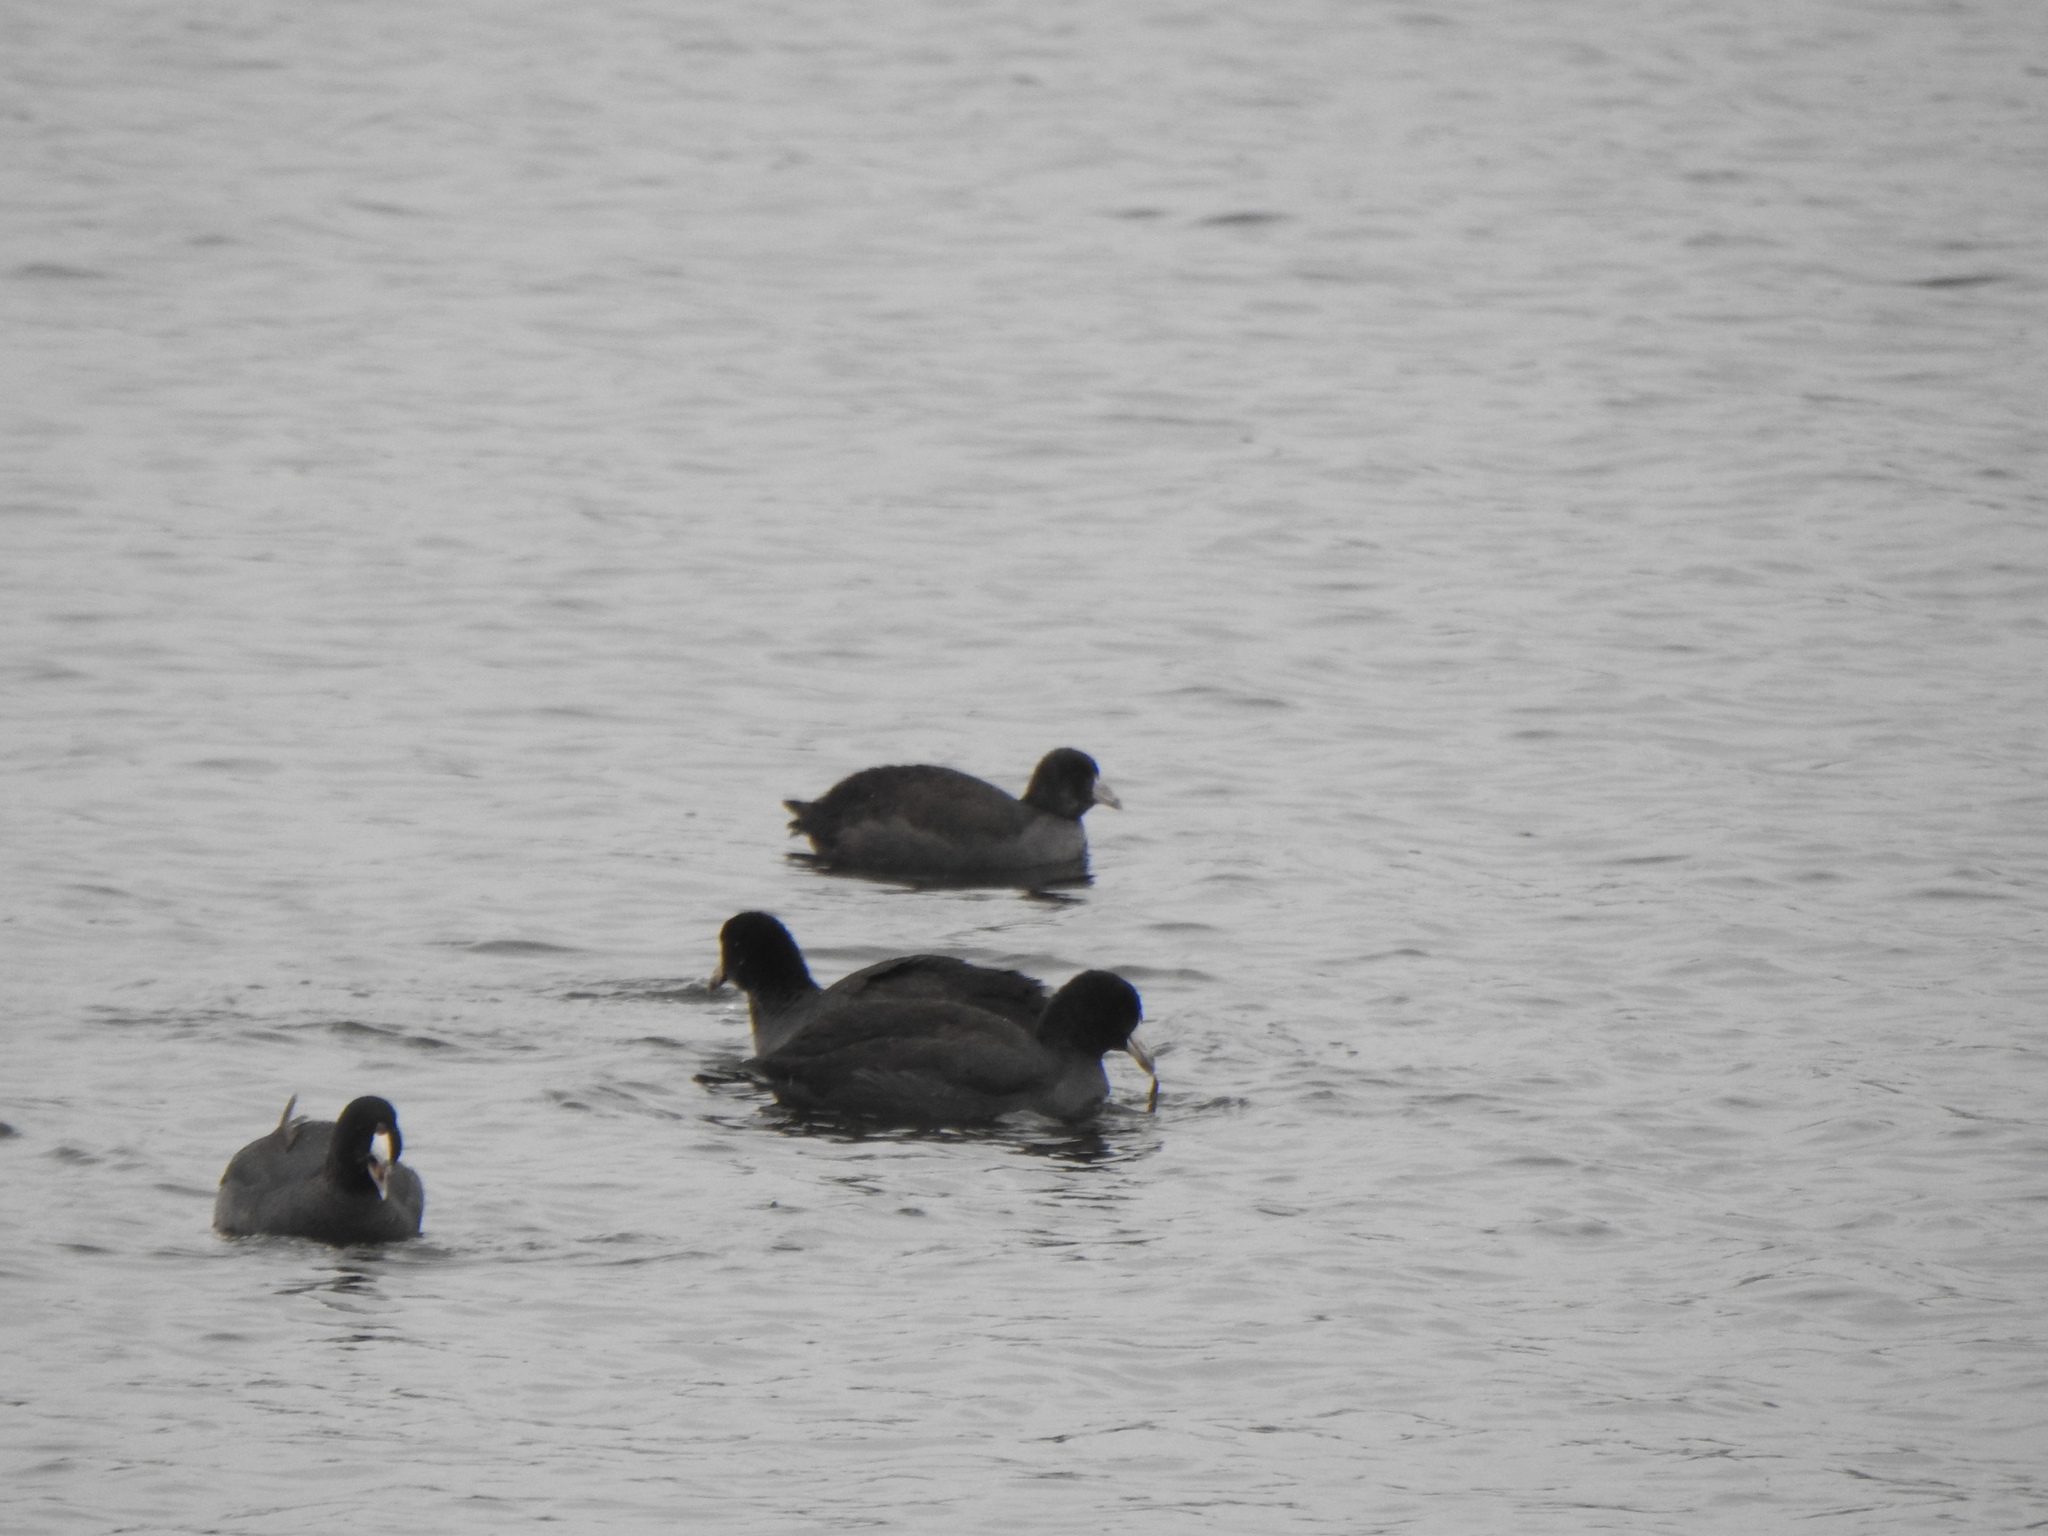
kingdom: Animalia
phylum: Chordata
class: Aves
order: Gruiformes
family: Rallidae
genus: Fulica
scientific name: Fulica americana
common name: American coot
